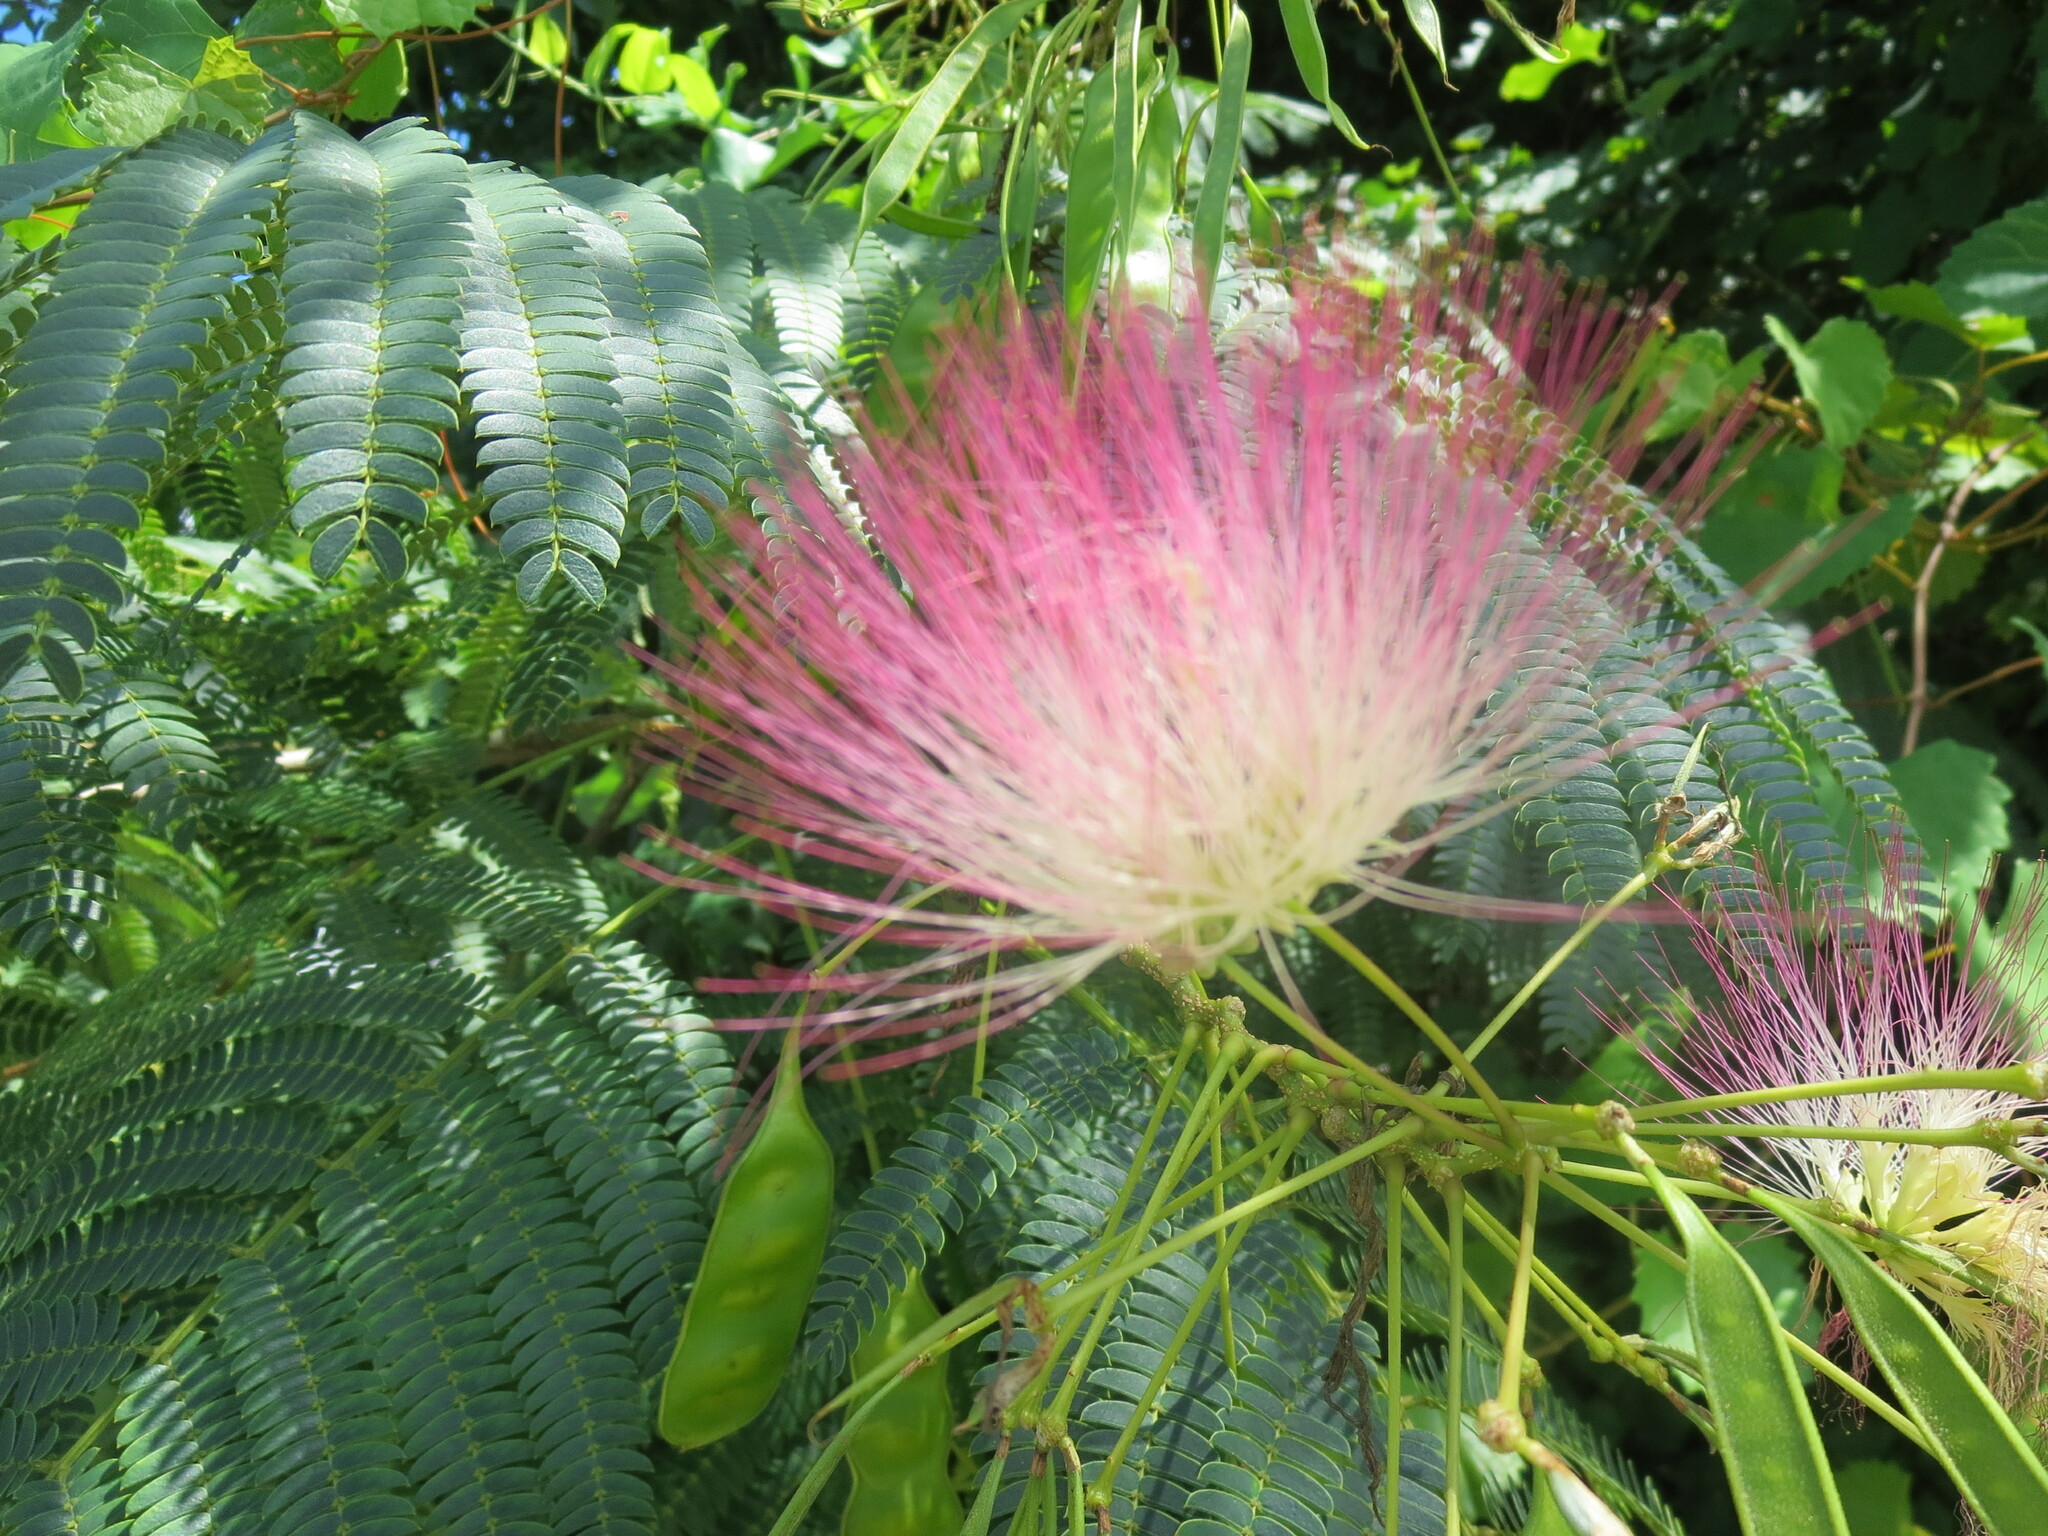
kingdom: Plantae
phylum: Tracheophyta
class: Magnoliopsida
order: Fabales
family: Fabaceae
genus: Albizia
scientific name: Albizia julibrissin
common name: Silktree
